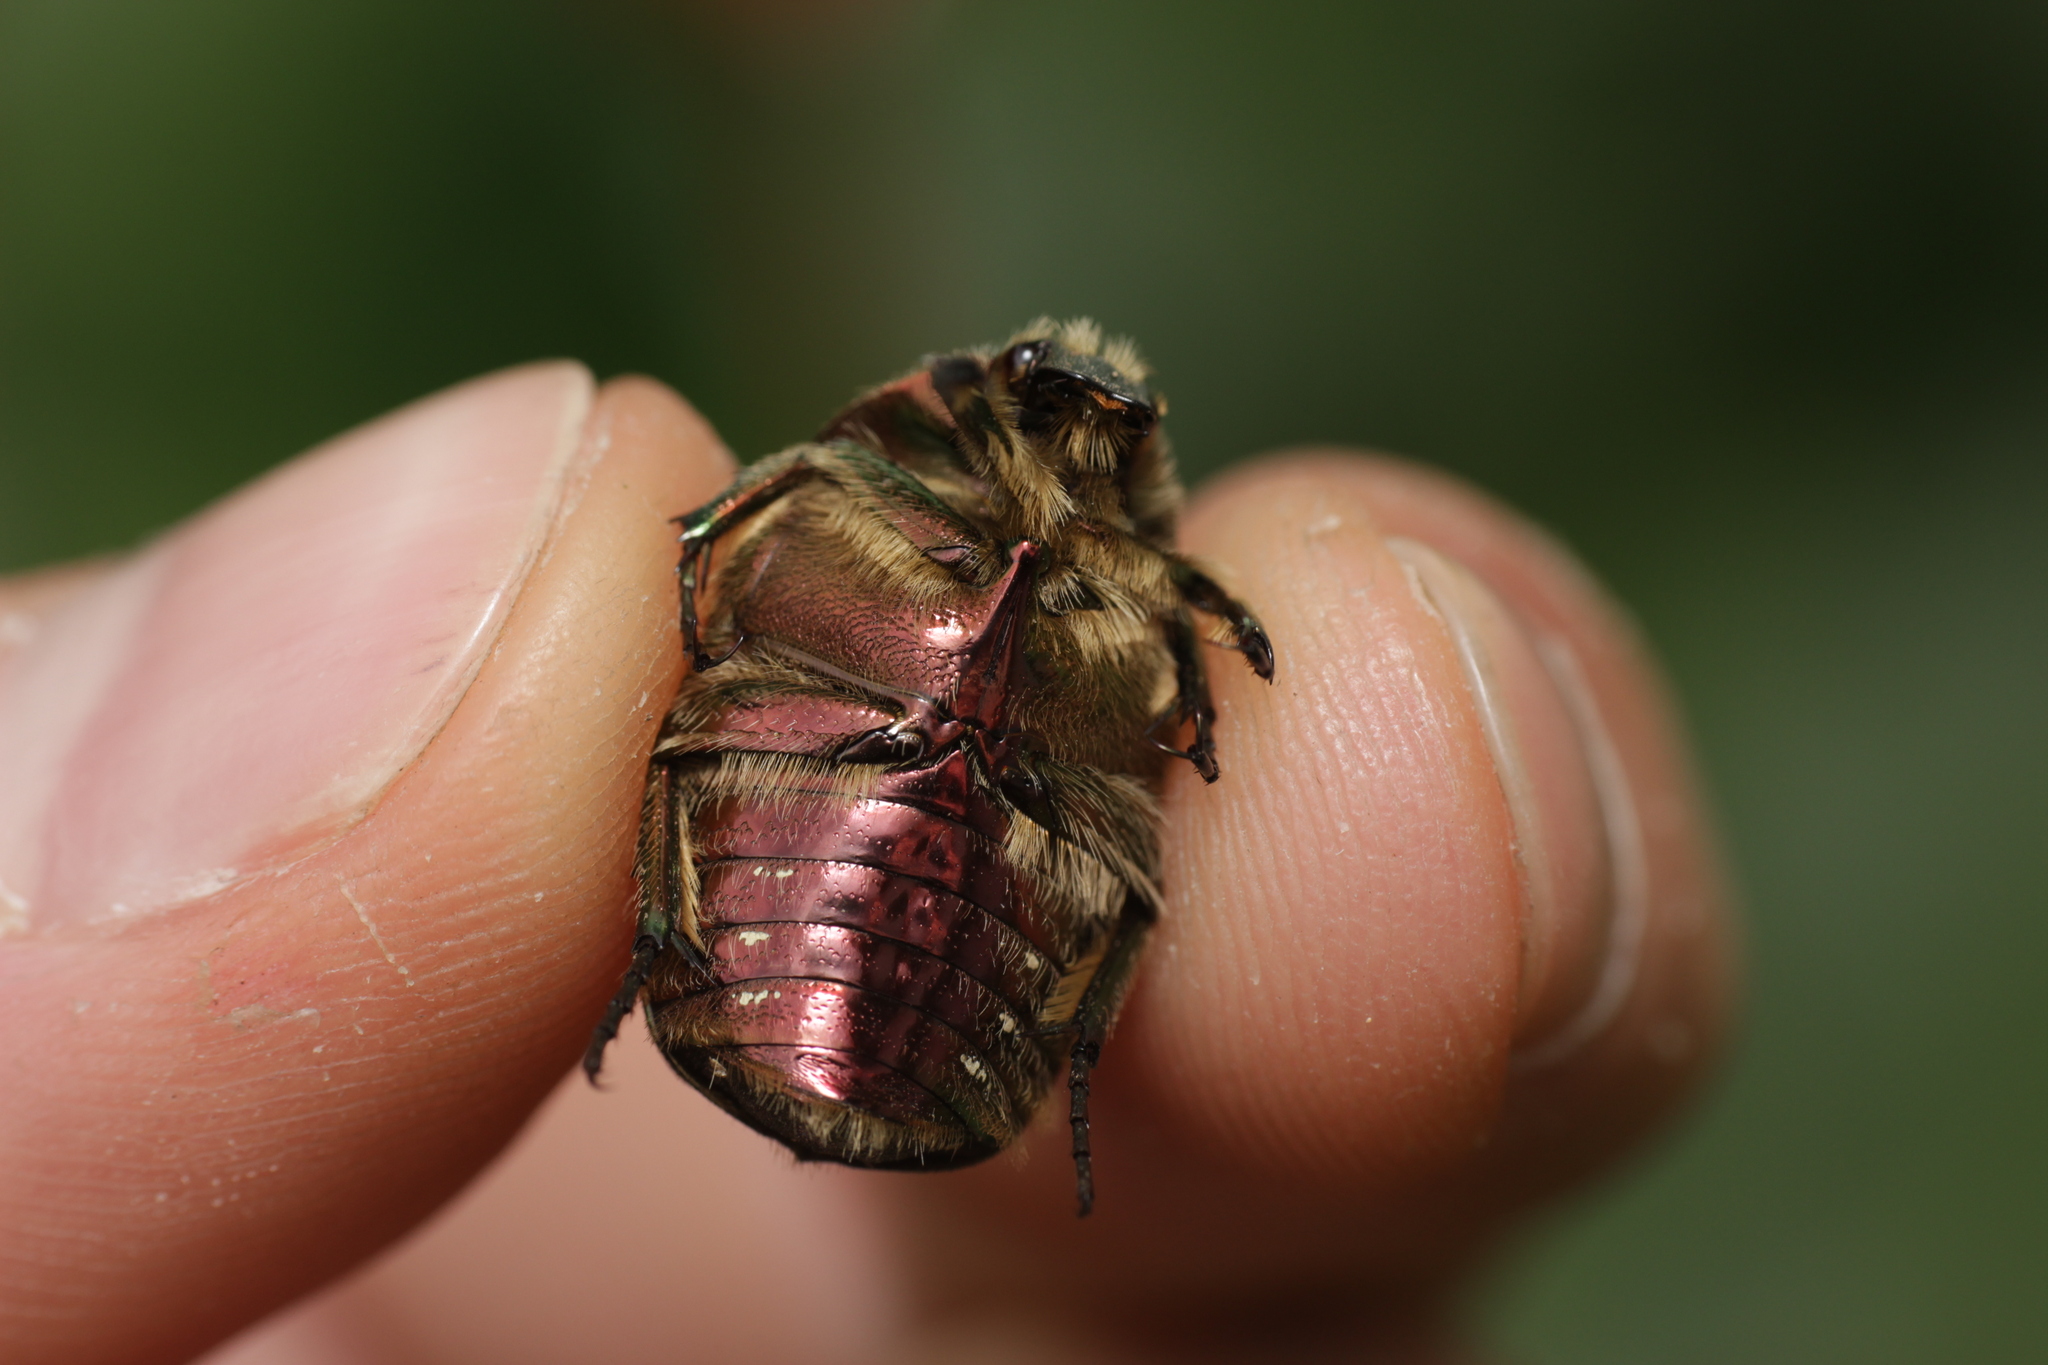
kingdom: Animalia
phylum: Arthropoda
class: Insecta
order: Coleoptera
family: Scarabaeidae
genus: Cetonia
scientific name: Cetonia aurata
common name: Rose chafer
